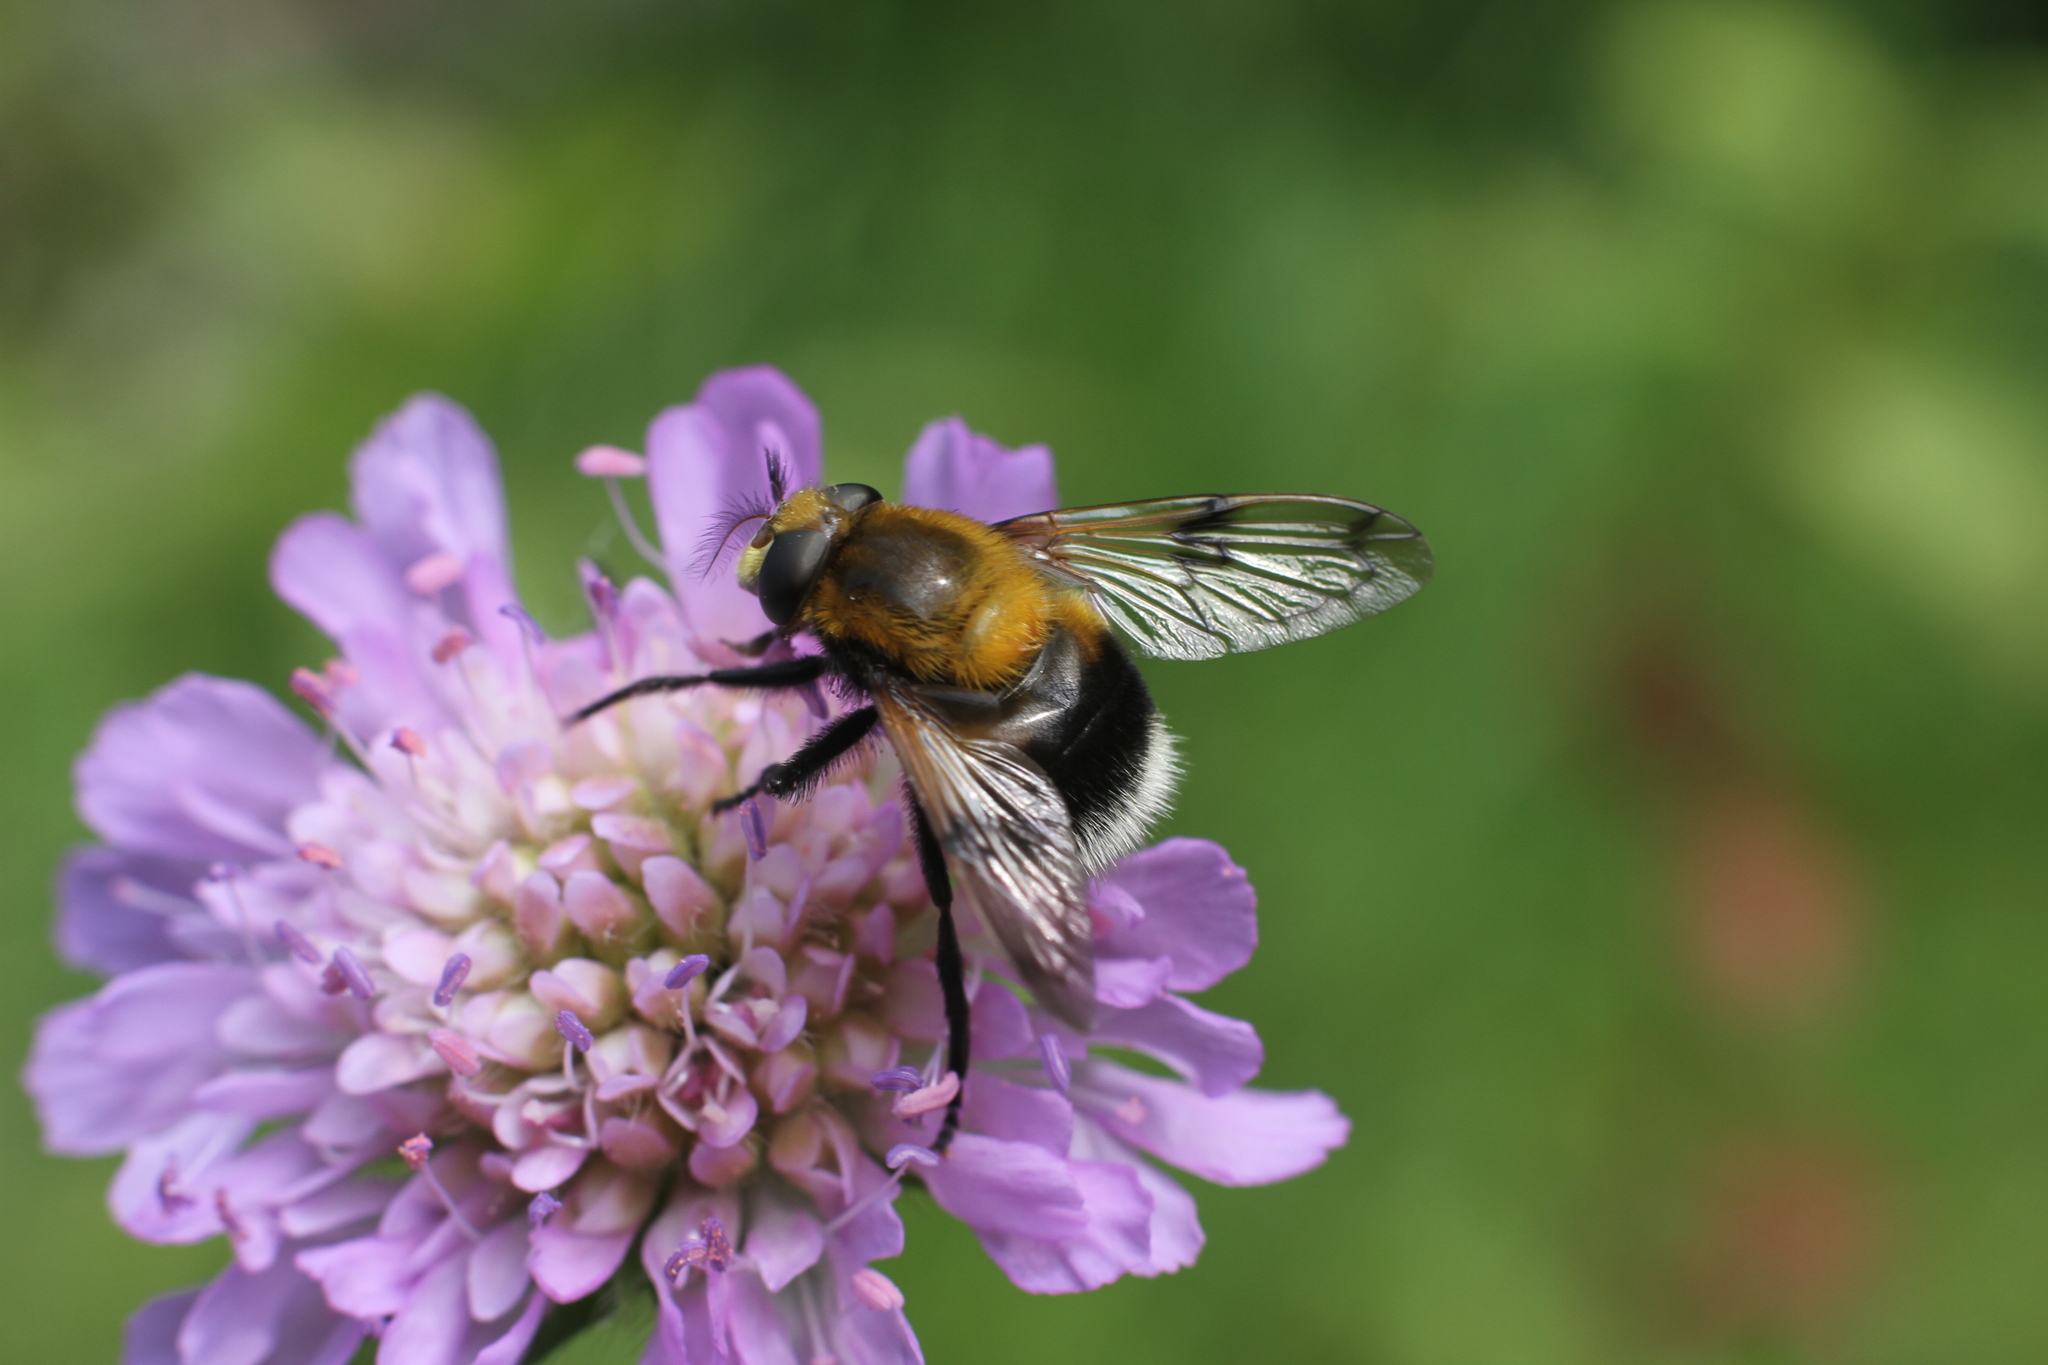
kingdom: Animalia
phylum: Arthropoda
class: Insecta
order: Diptera
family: Syrphidae
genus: Volucella
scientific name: Volucella bombylans
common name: Bumble bee hover fly
